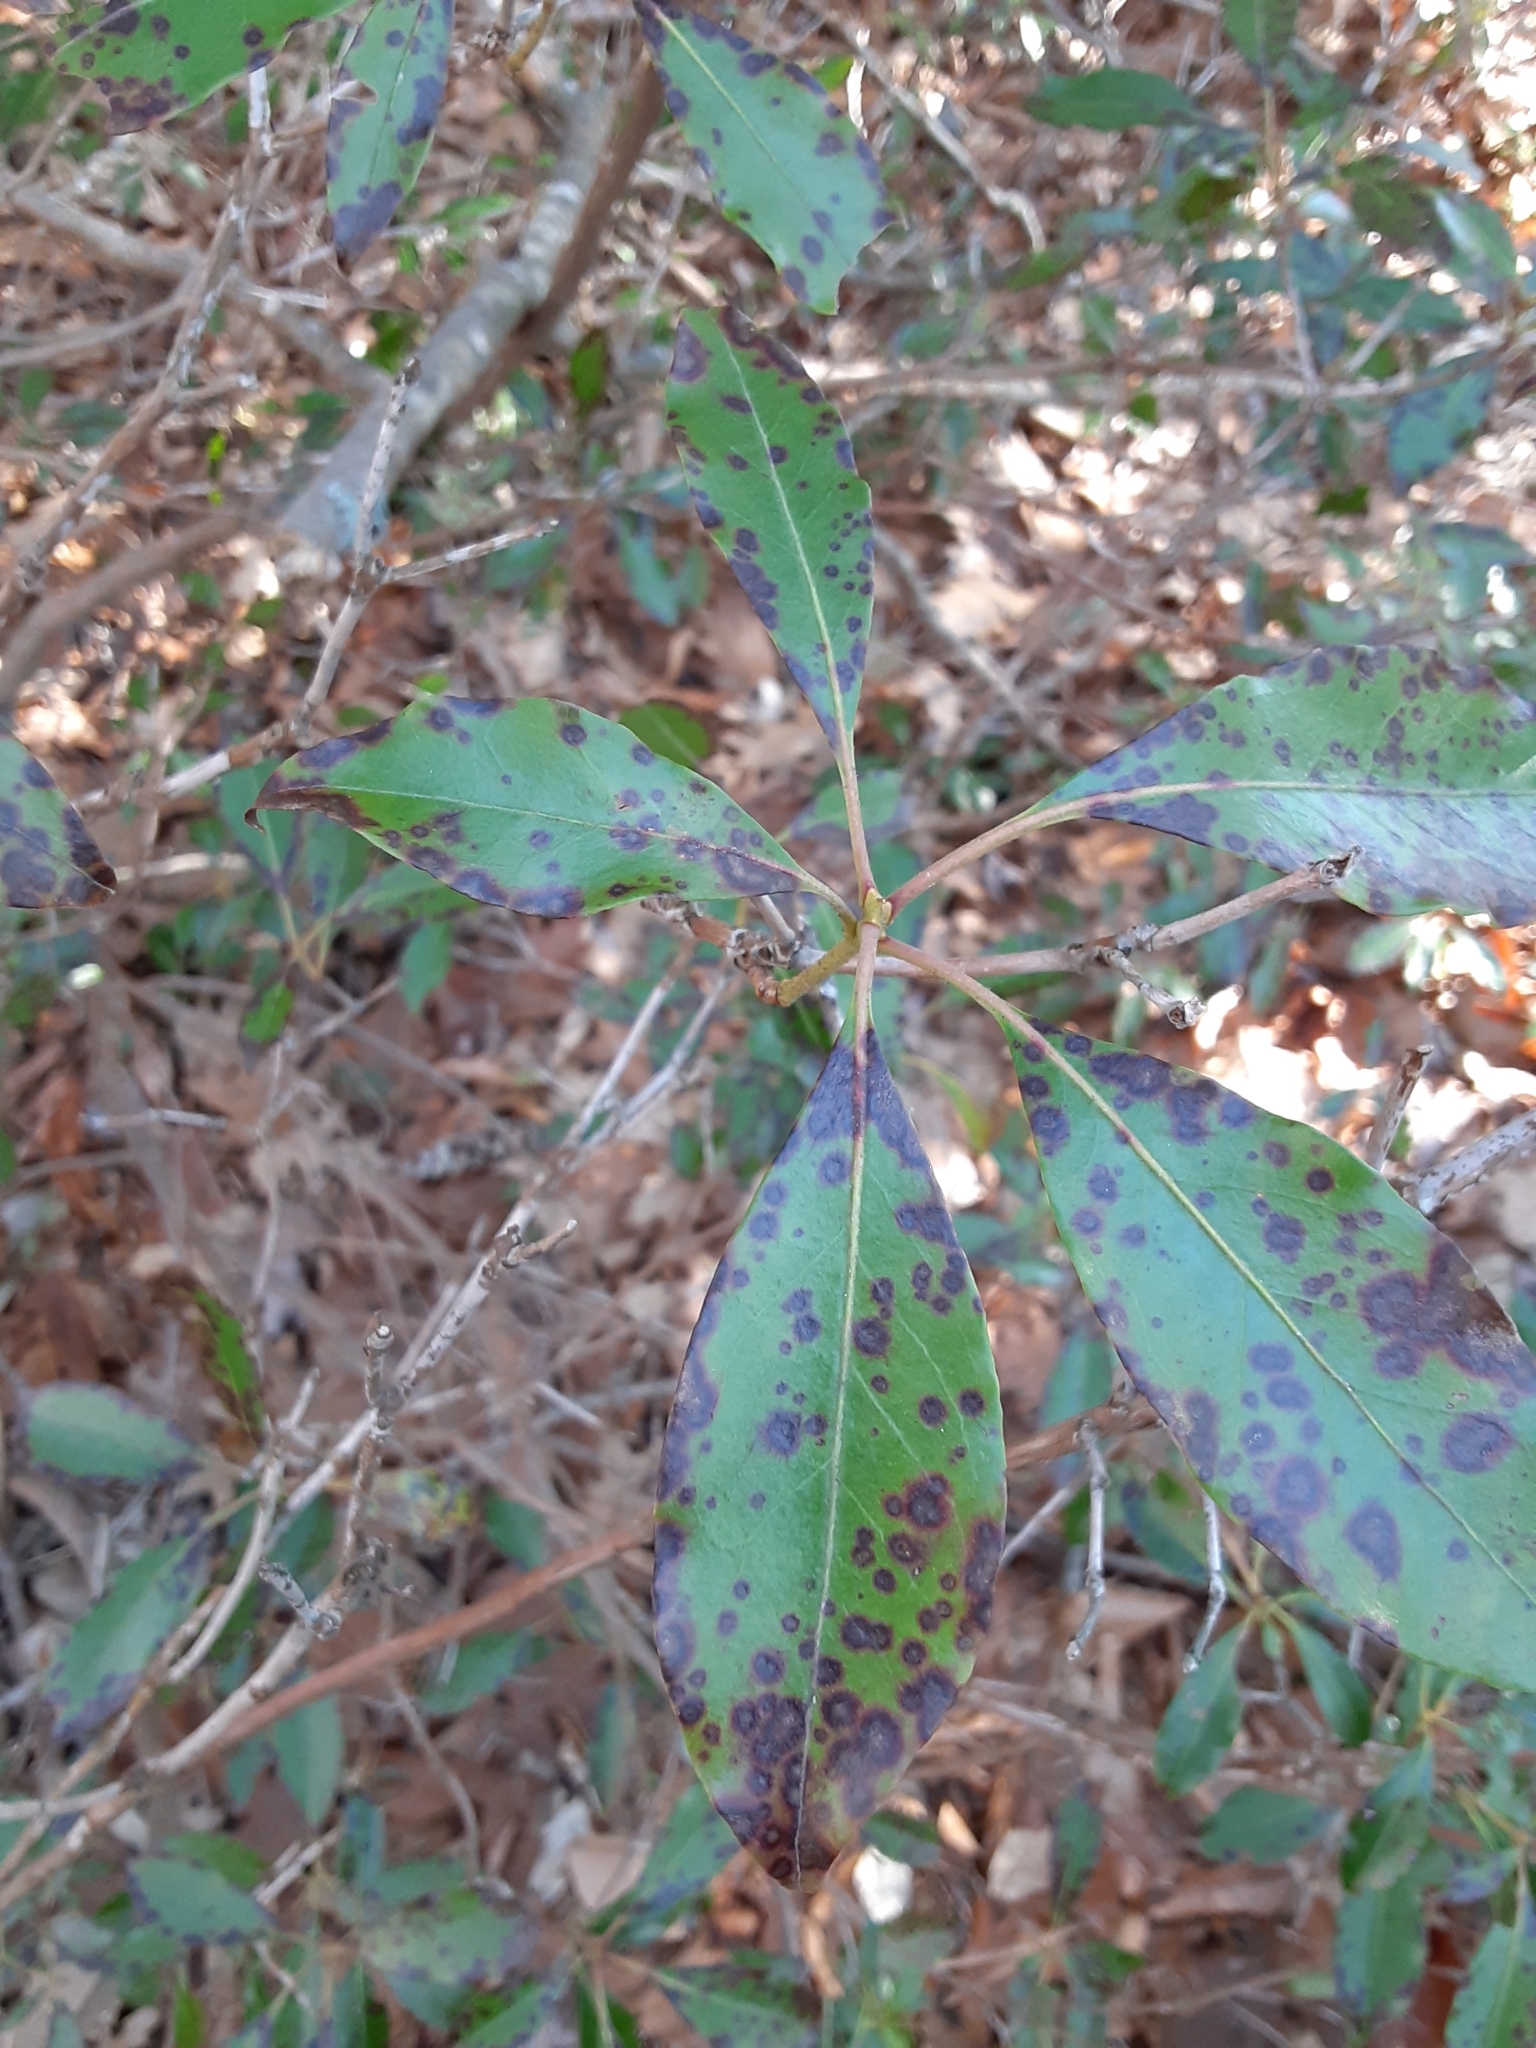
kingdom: Plantae
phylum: Tracheophyta
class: Magnoliopsida
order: Ericales
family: Ericaceae
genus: Kalmia
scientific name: Kalmia latifolia
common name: Mountain-laurel
